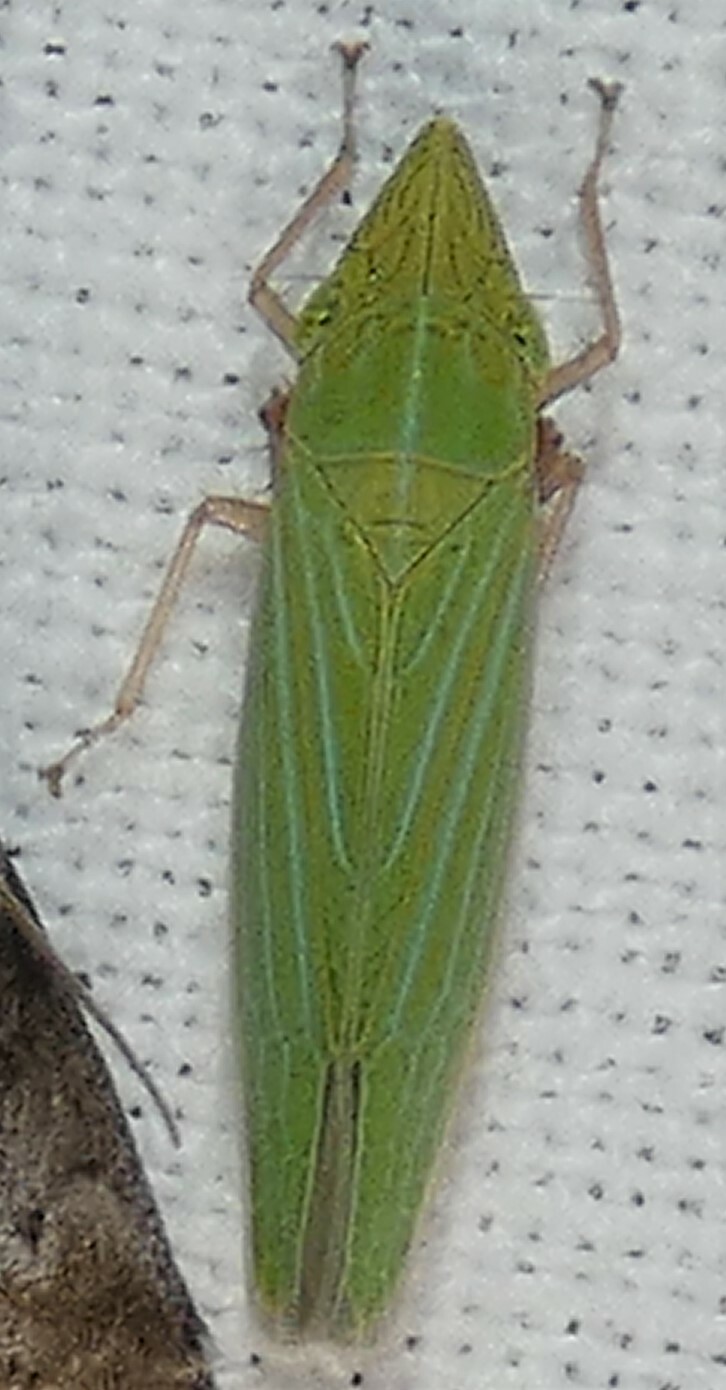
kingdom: Animalia
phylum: Arthropoda
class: Insecta
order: Hemiptera
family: Cicadellidae
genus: Draeculacephala
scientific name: Draeculacephala robinsoni
